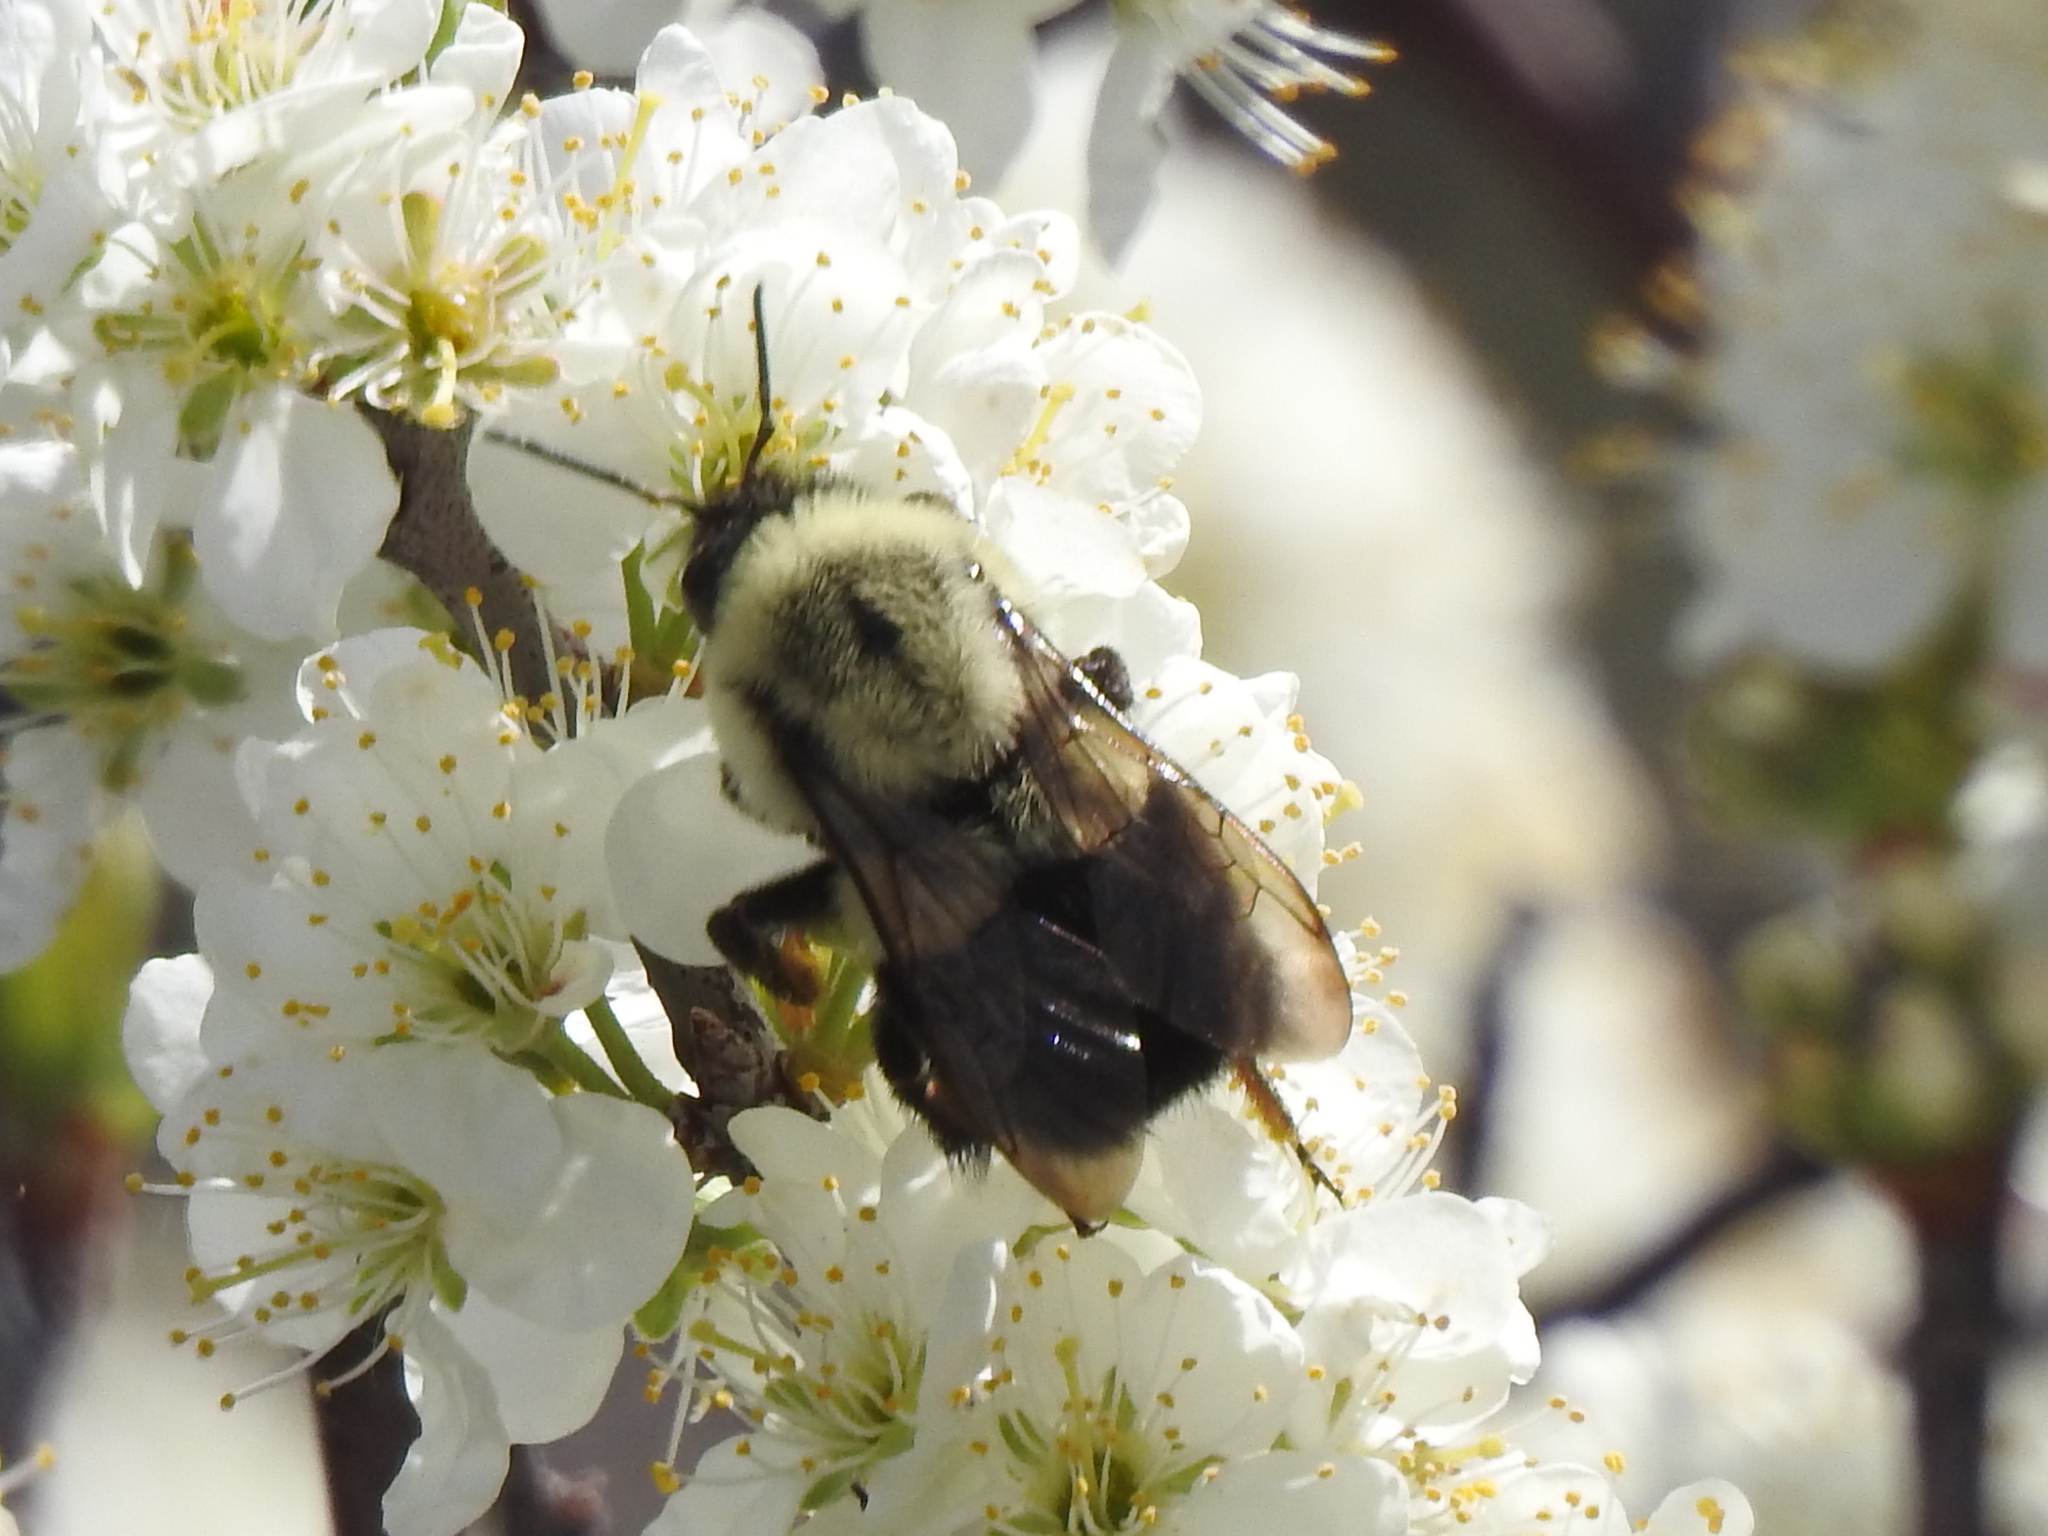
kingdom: Animalia
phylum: Arthropoda
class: Insecta
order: Hymenoptera
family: Apidae
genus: Bombus
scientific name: Bombus impatiens
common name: Common eastern bumble bee
